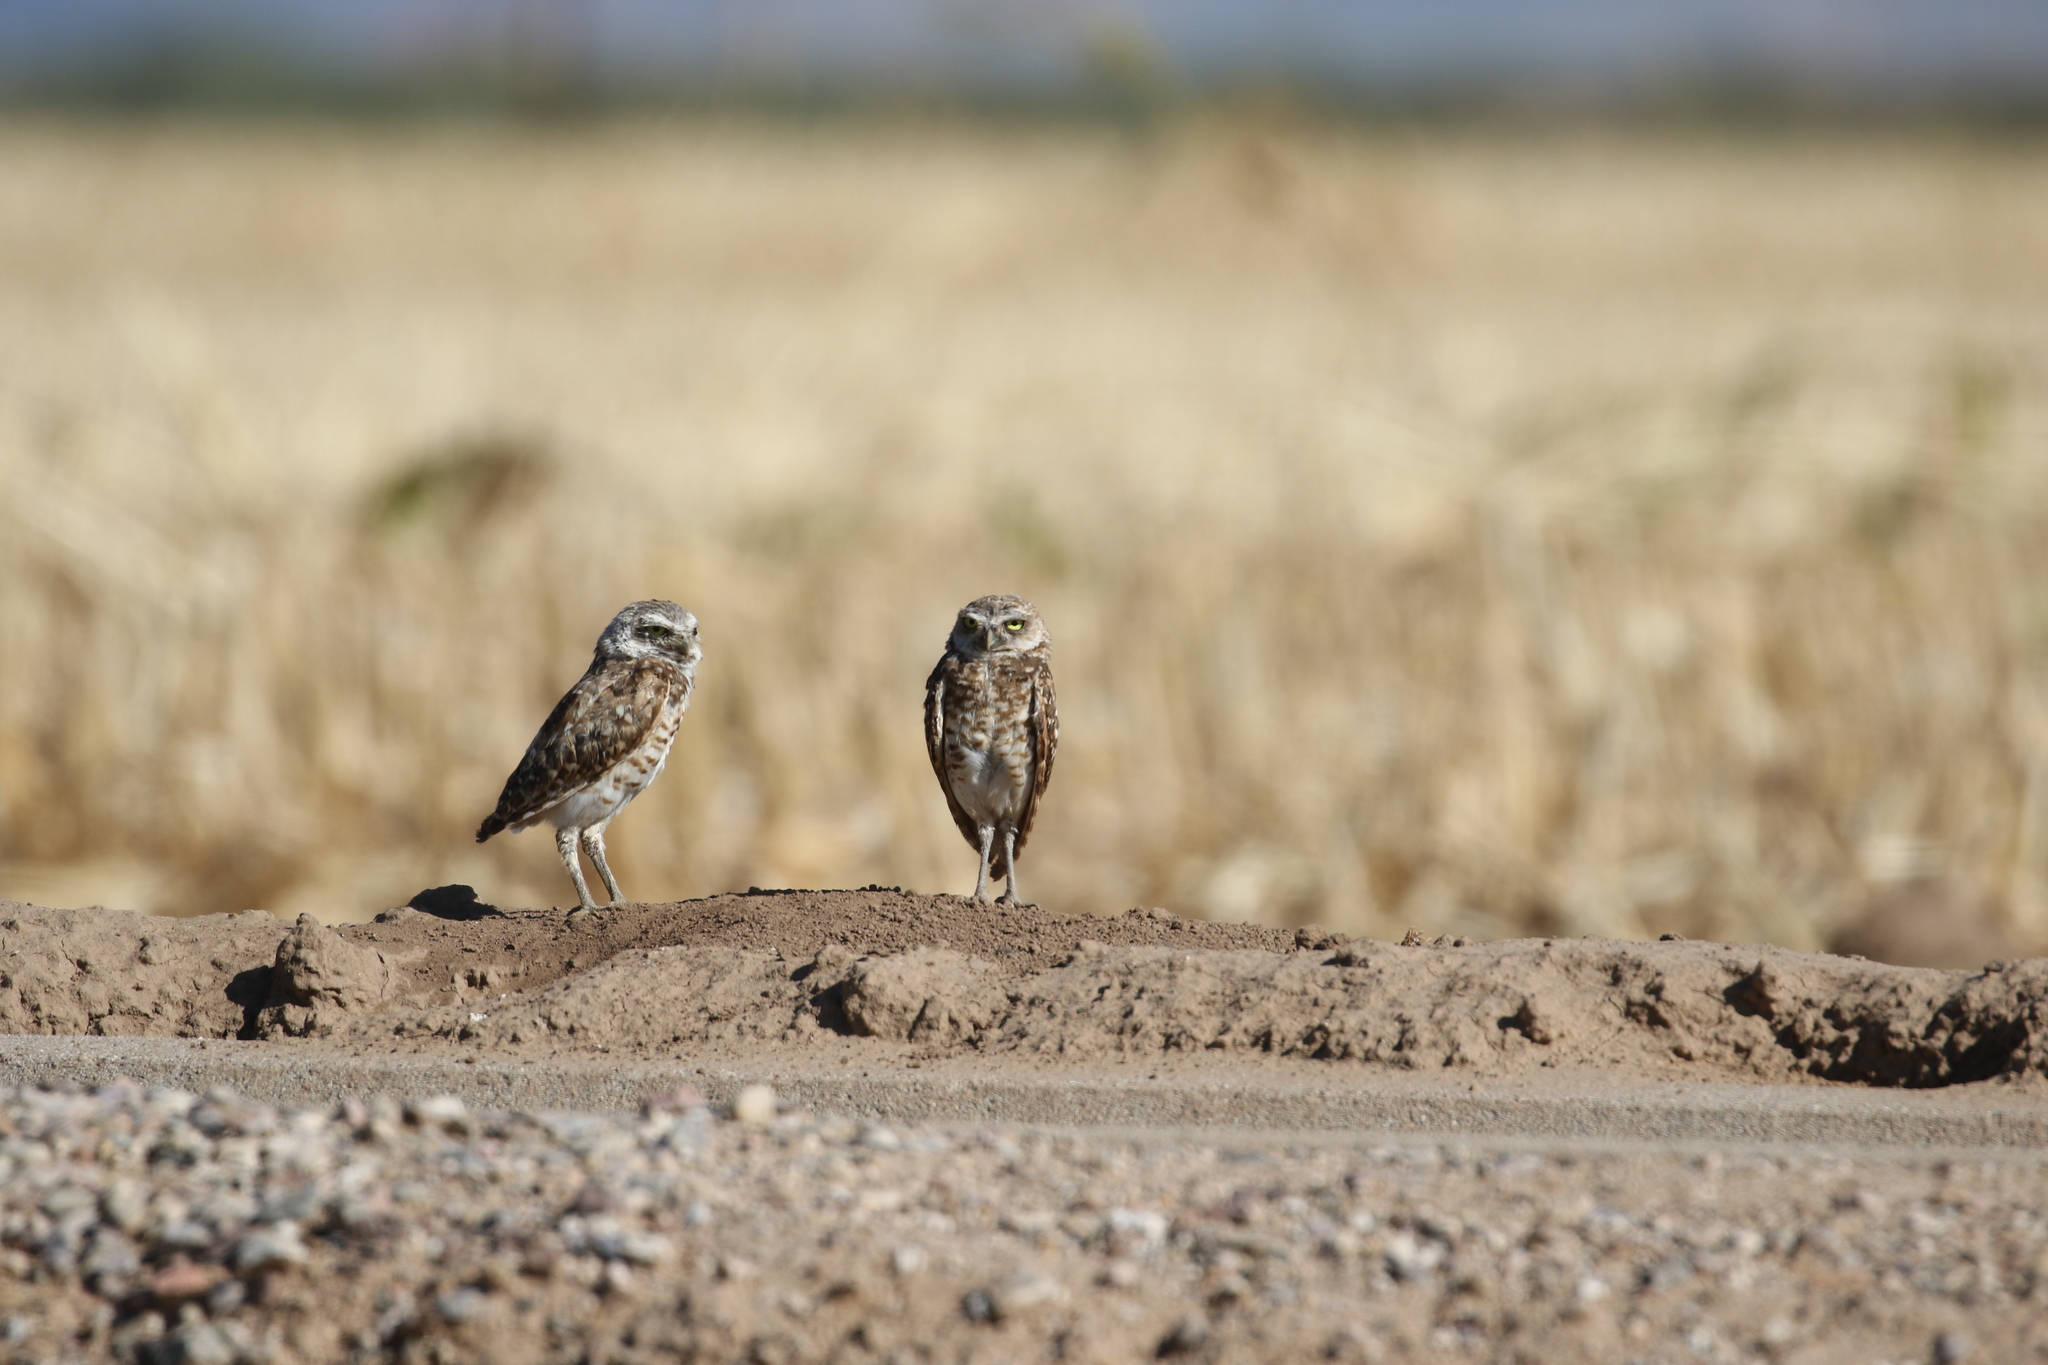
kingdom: Animalia
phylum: Chordata
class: Aves
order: Strigiformes
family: Strigidae
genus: Athene
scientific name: Athene cunicularia
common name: Burrowing owl
